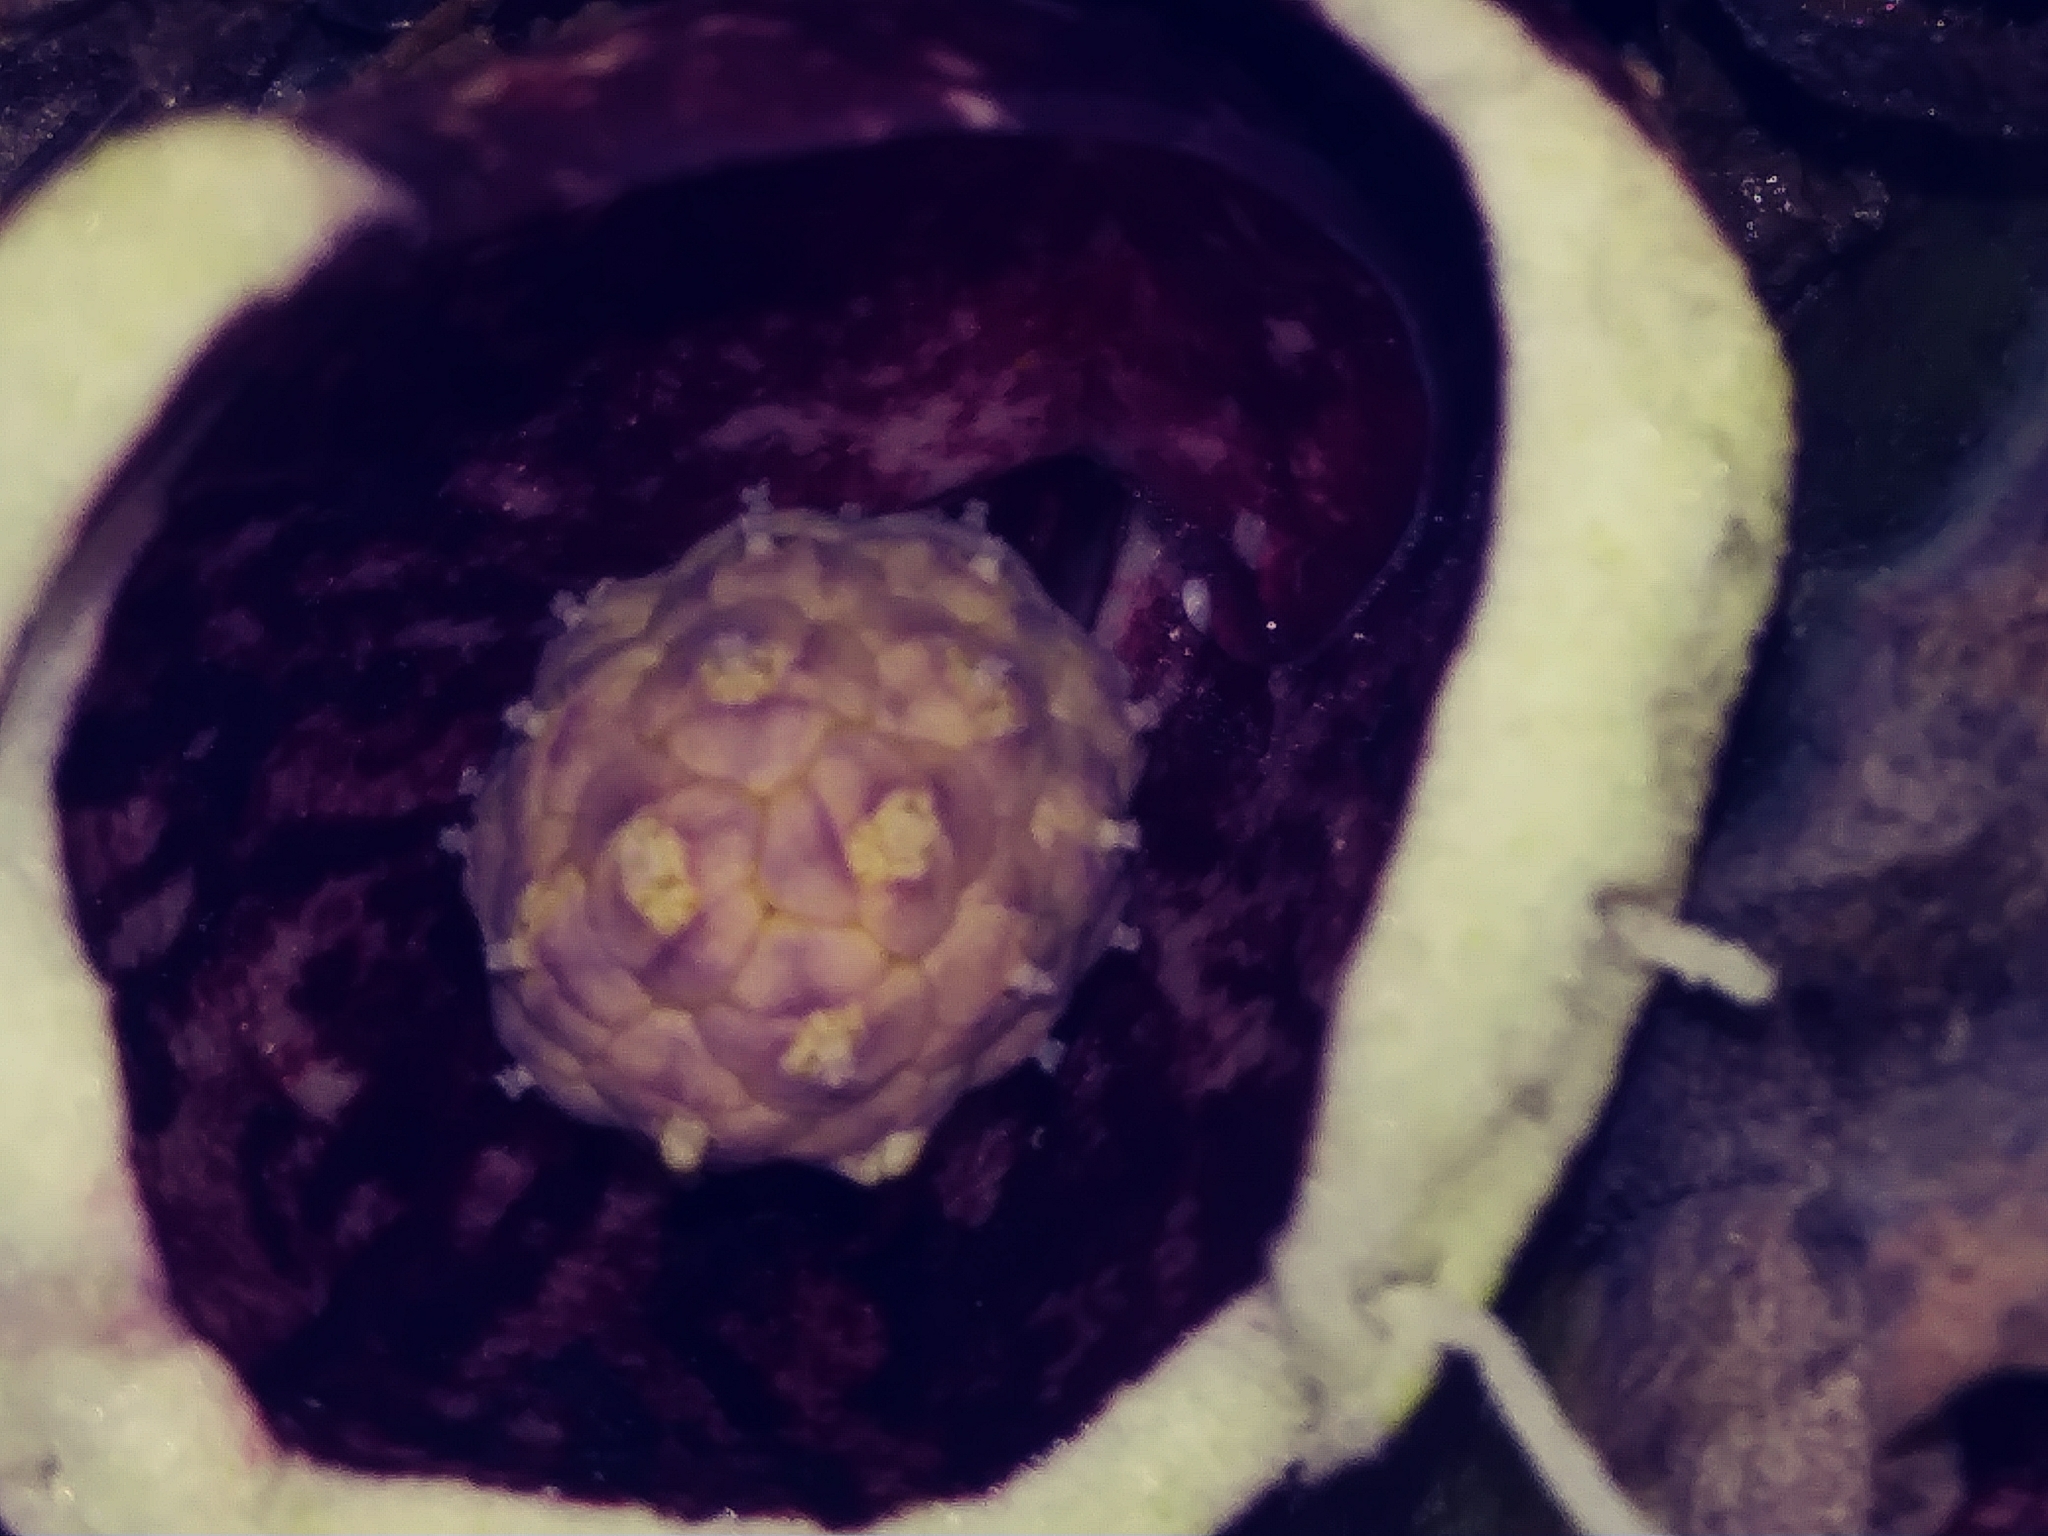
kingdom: Plantae
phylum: Tracheophyta
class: Liliopsida
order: Alismatales
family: Araceae
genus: Symplocarpus
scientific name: Symplocarpus foetidus
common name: Eastern skunk cabbage
